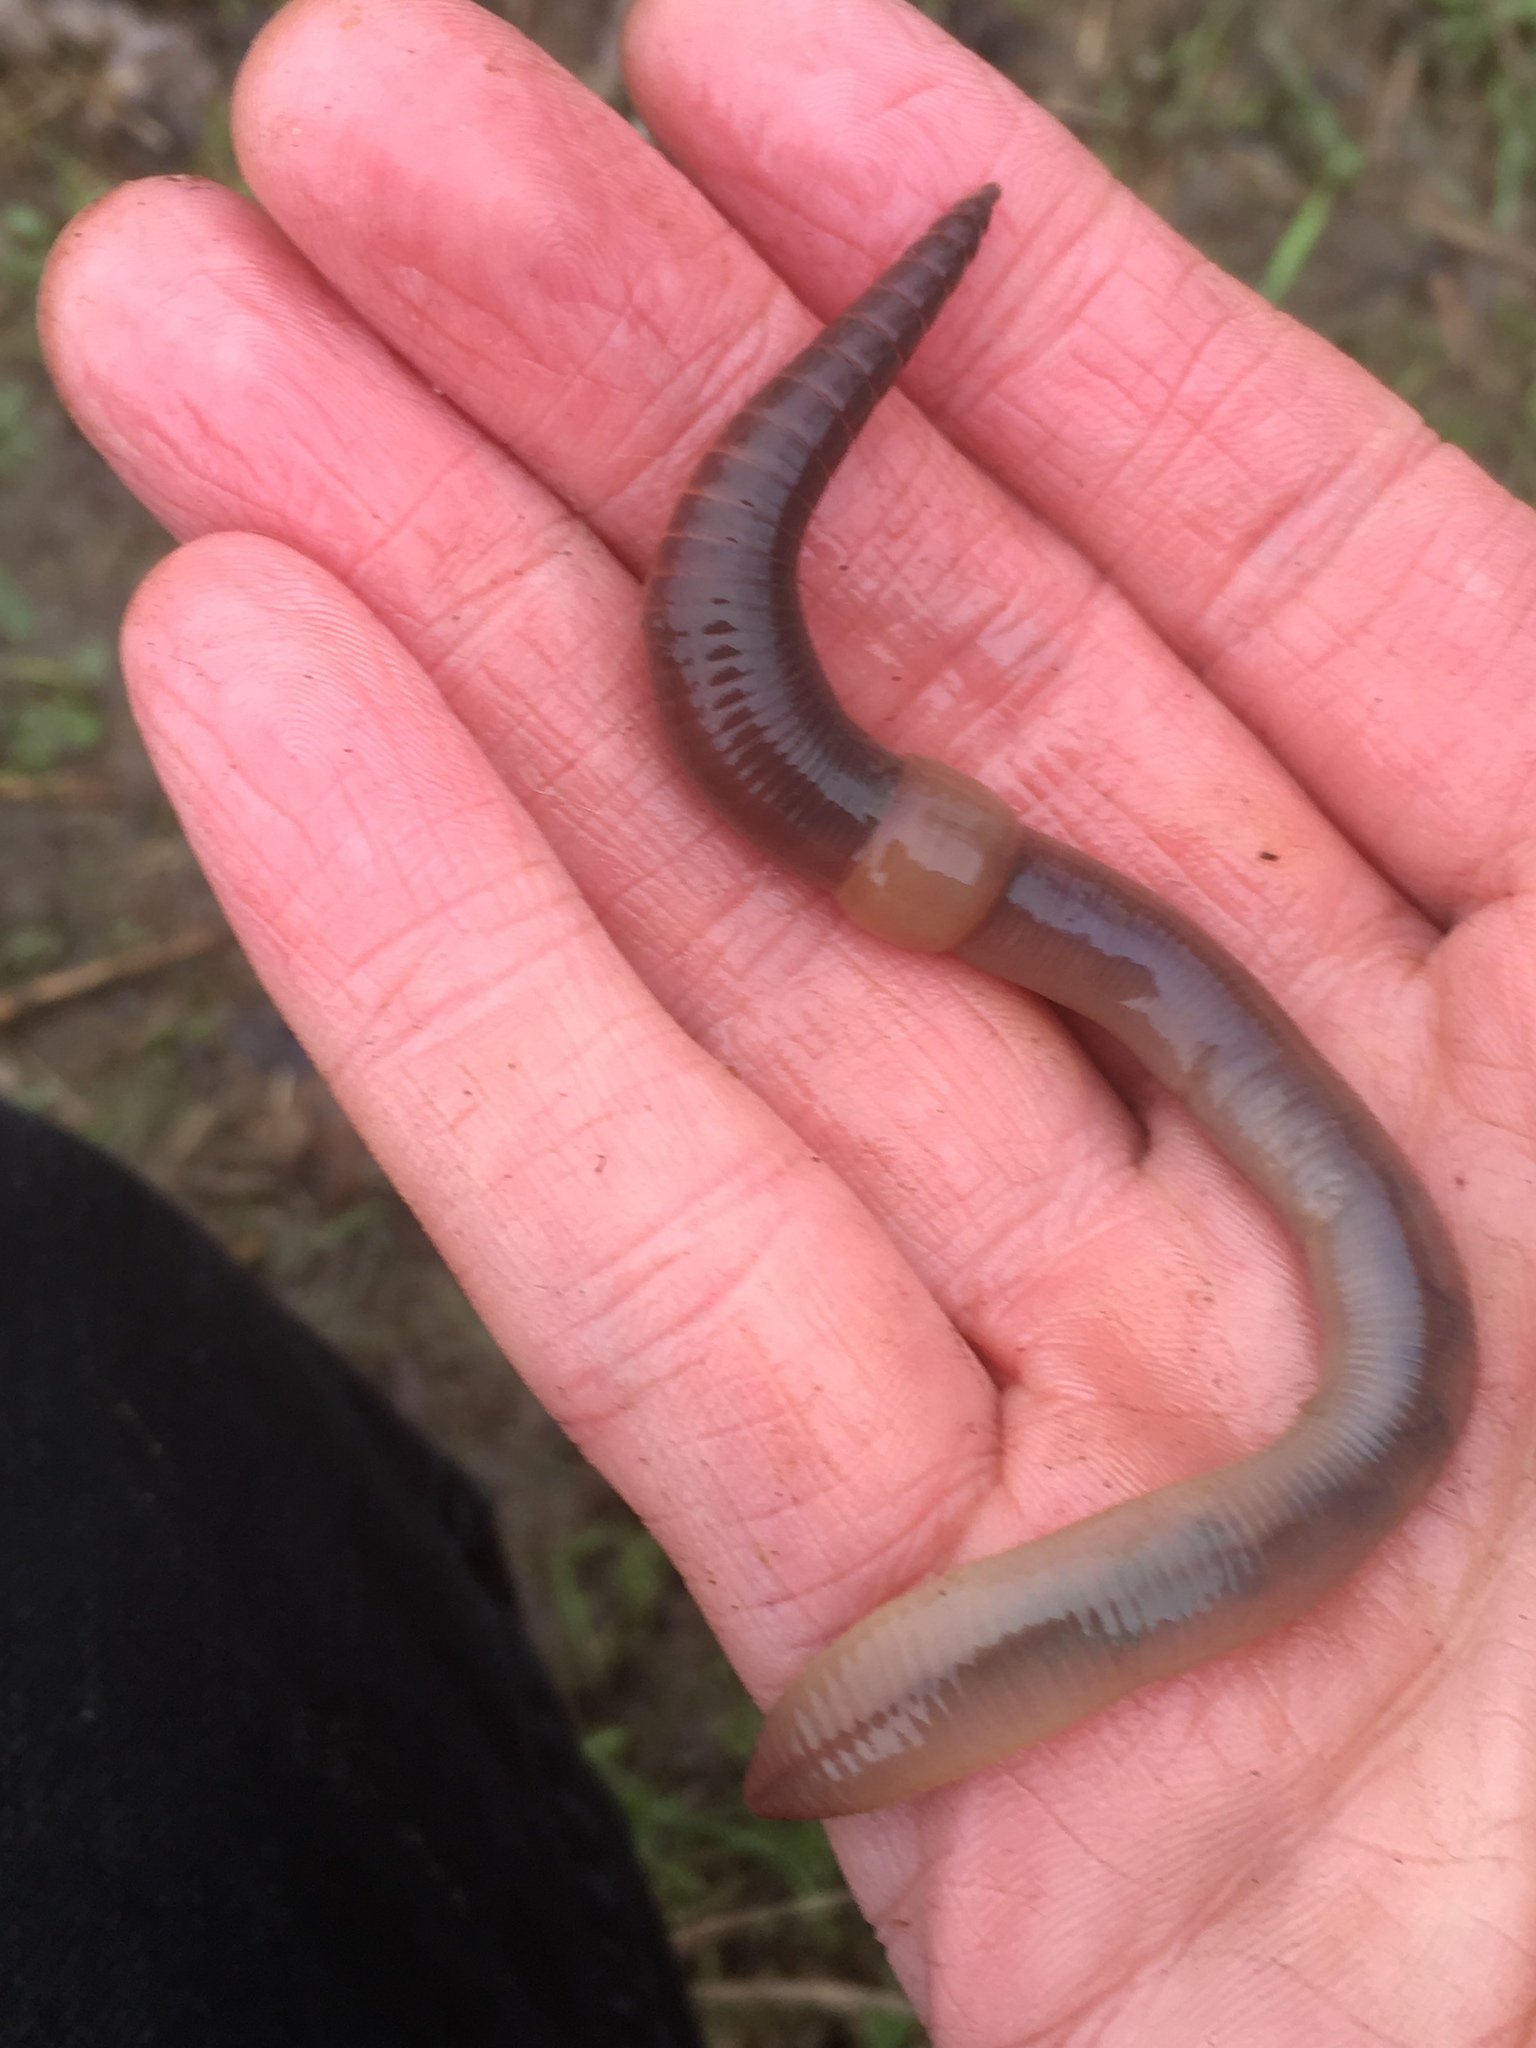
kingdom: Animalia
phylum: Annelida
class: Clitellata
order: Crassiclitellata
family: Lumbricidae
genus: Lumbricus
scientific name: Lumbricus terrestris
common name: Common earthworm
